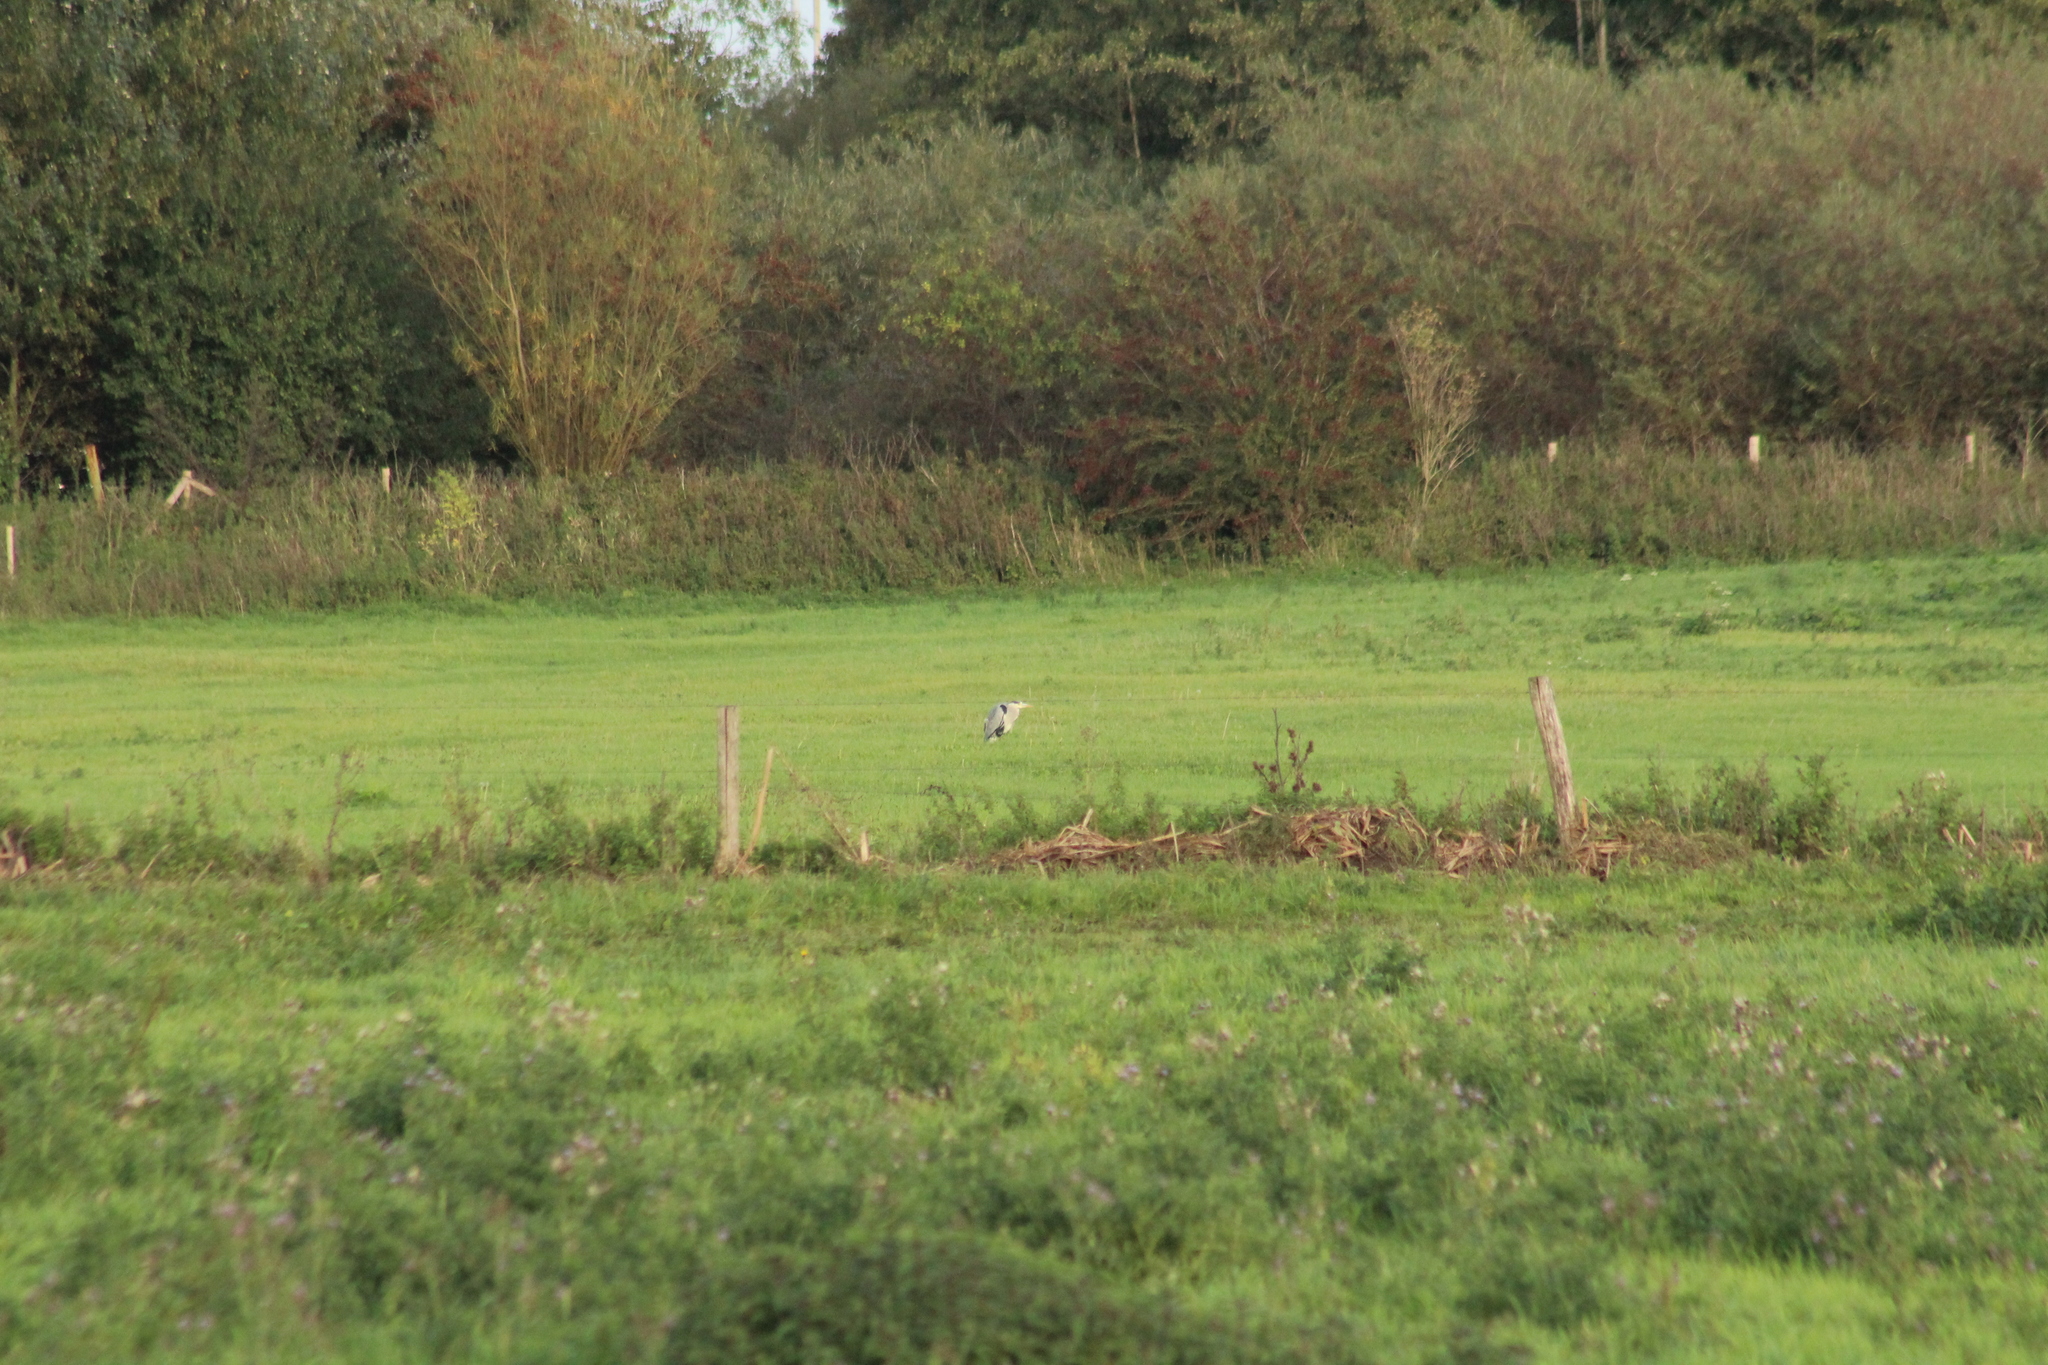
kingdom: Animalia
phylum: Chordata
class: Aves
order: Pelecaniformes
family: Ardeidae
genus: Ardea
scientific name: Ardea cinerea
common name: Grey heron
